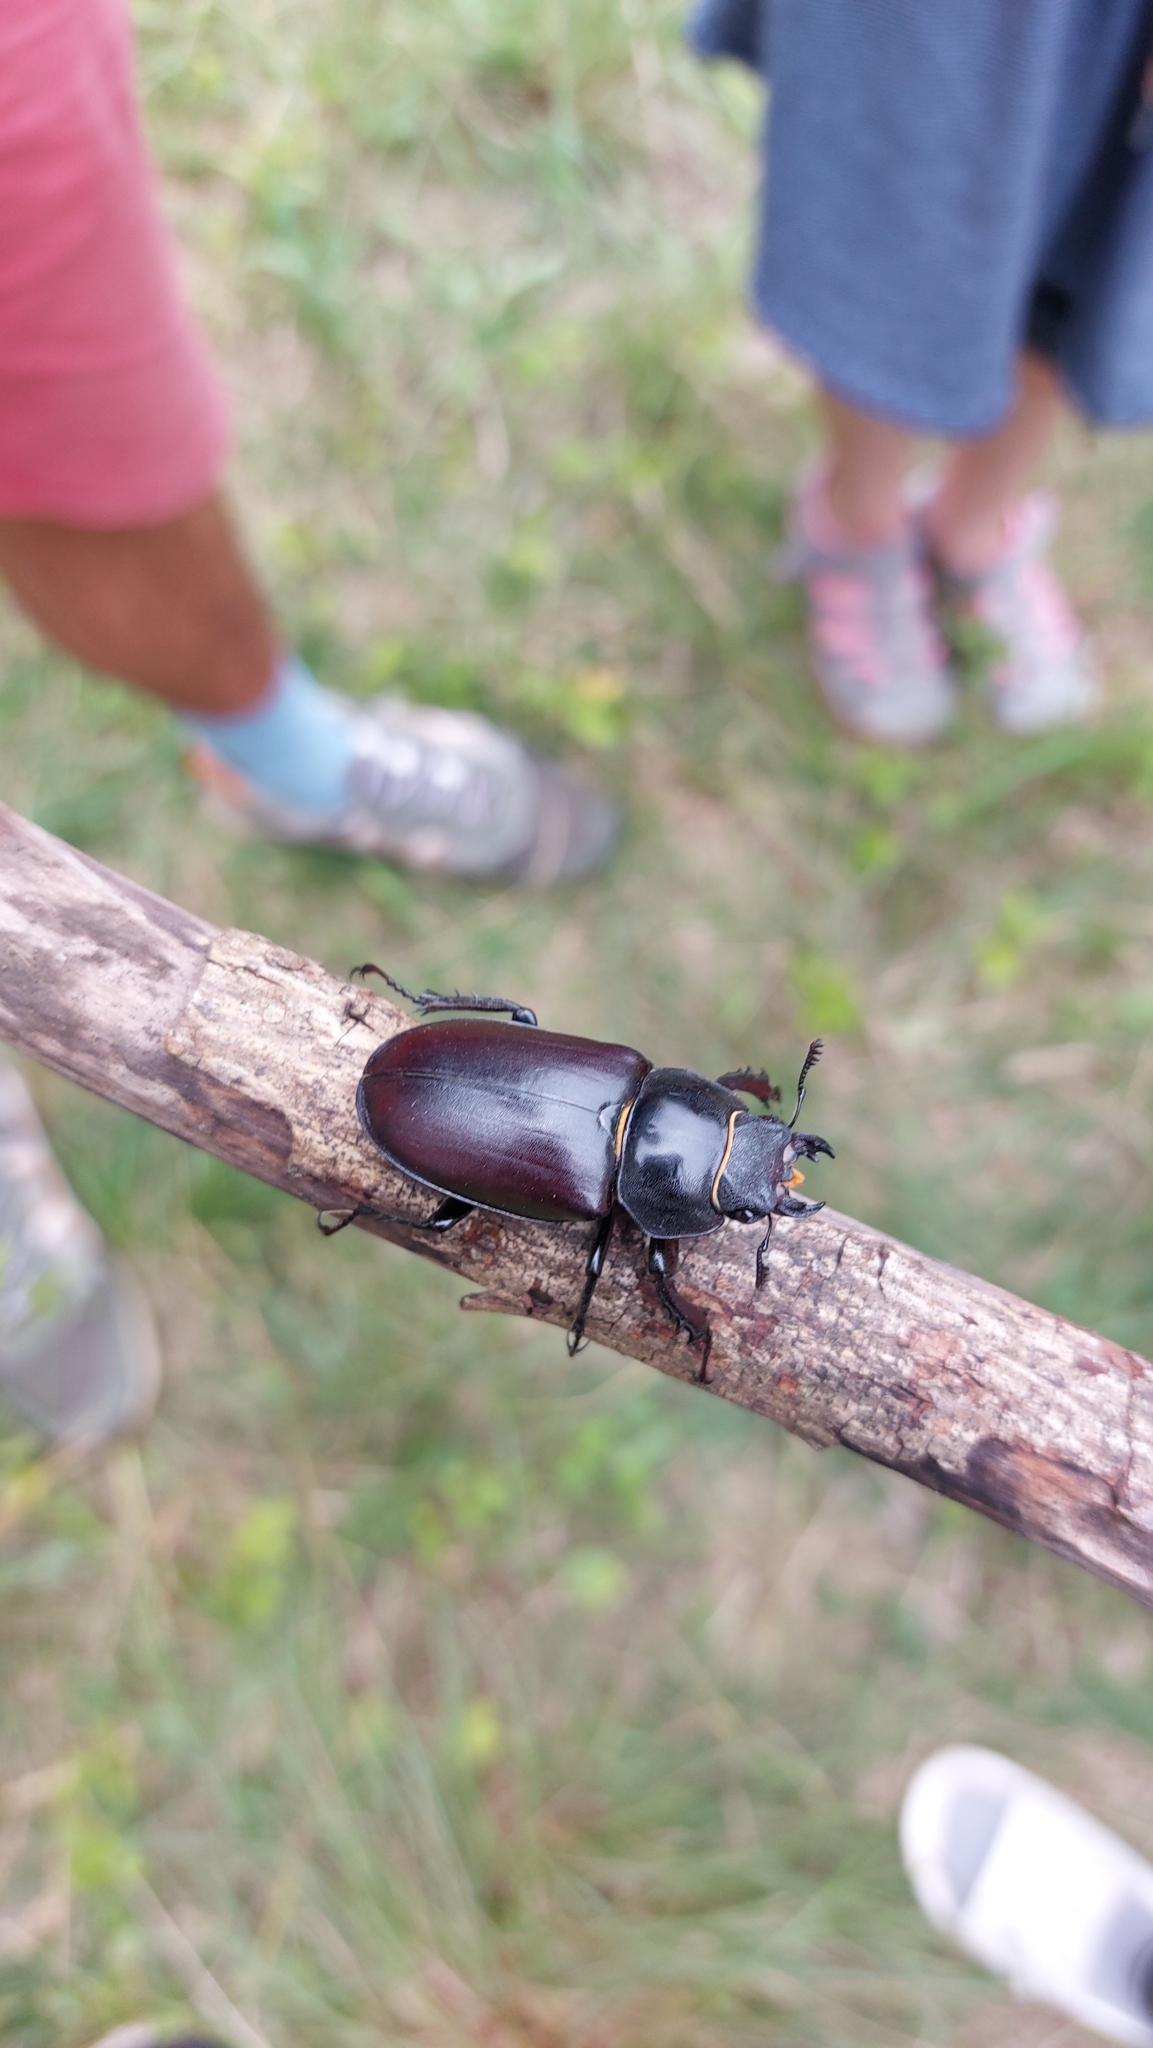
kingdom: Animalia
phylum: Arthropoda
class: Insecta
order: Coleoptera
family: Lucanidae
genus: Lucanus
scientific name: Lucanus cervus
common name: Stag beetle
